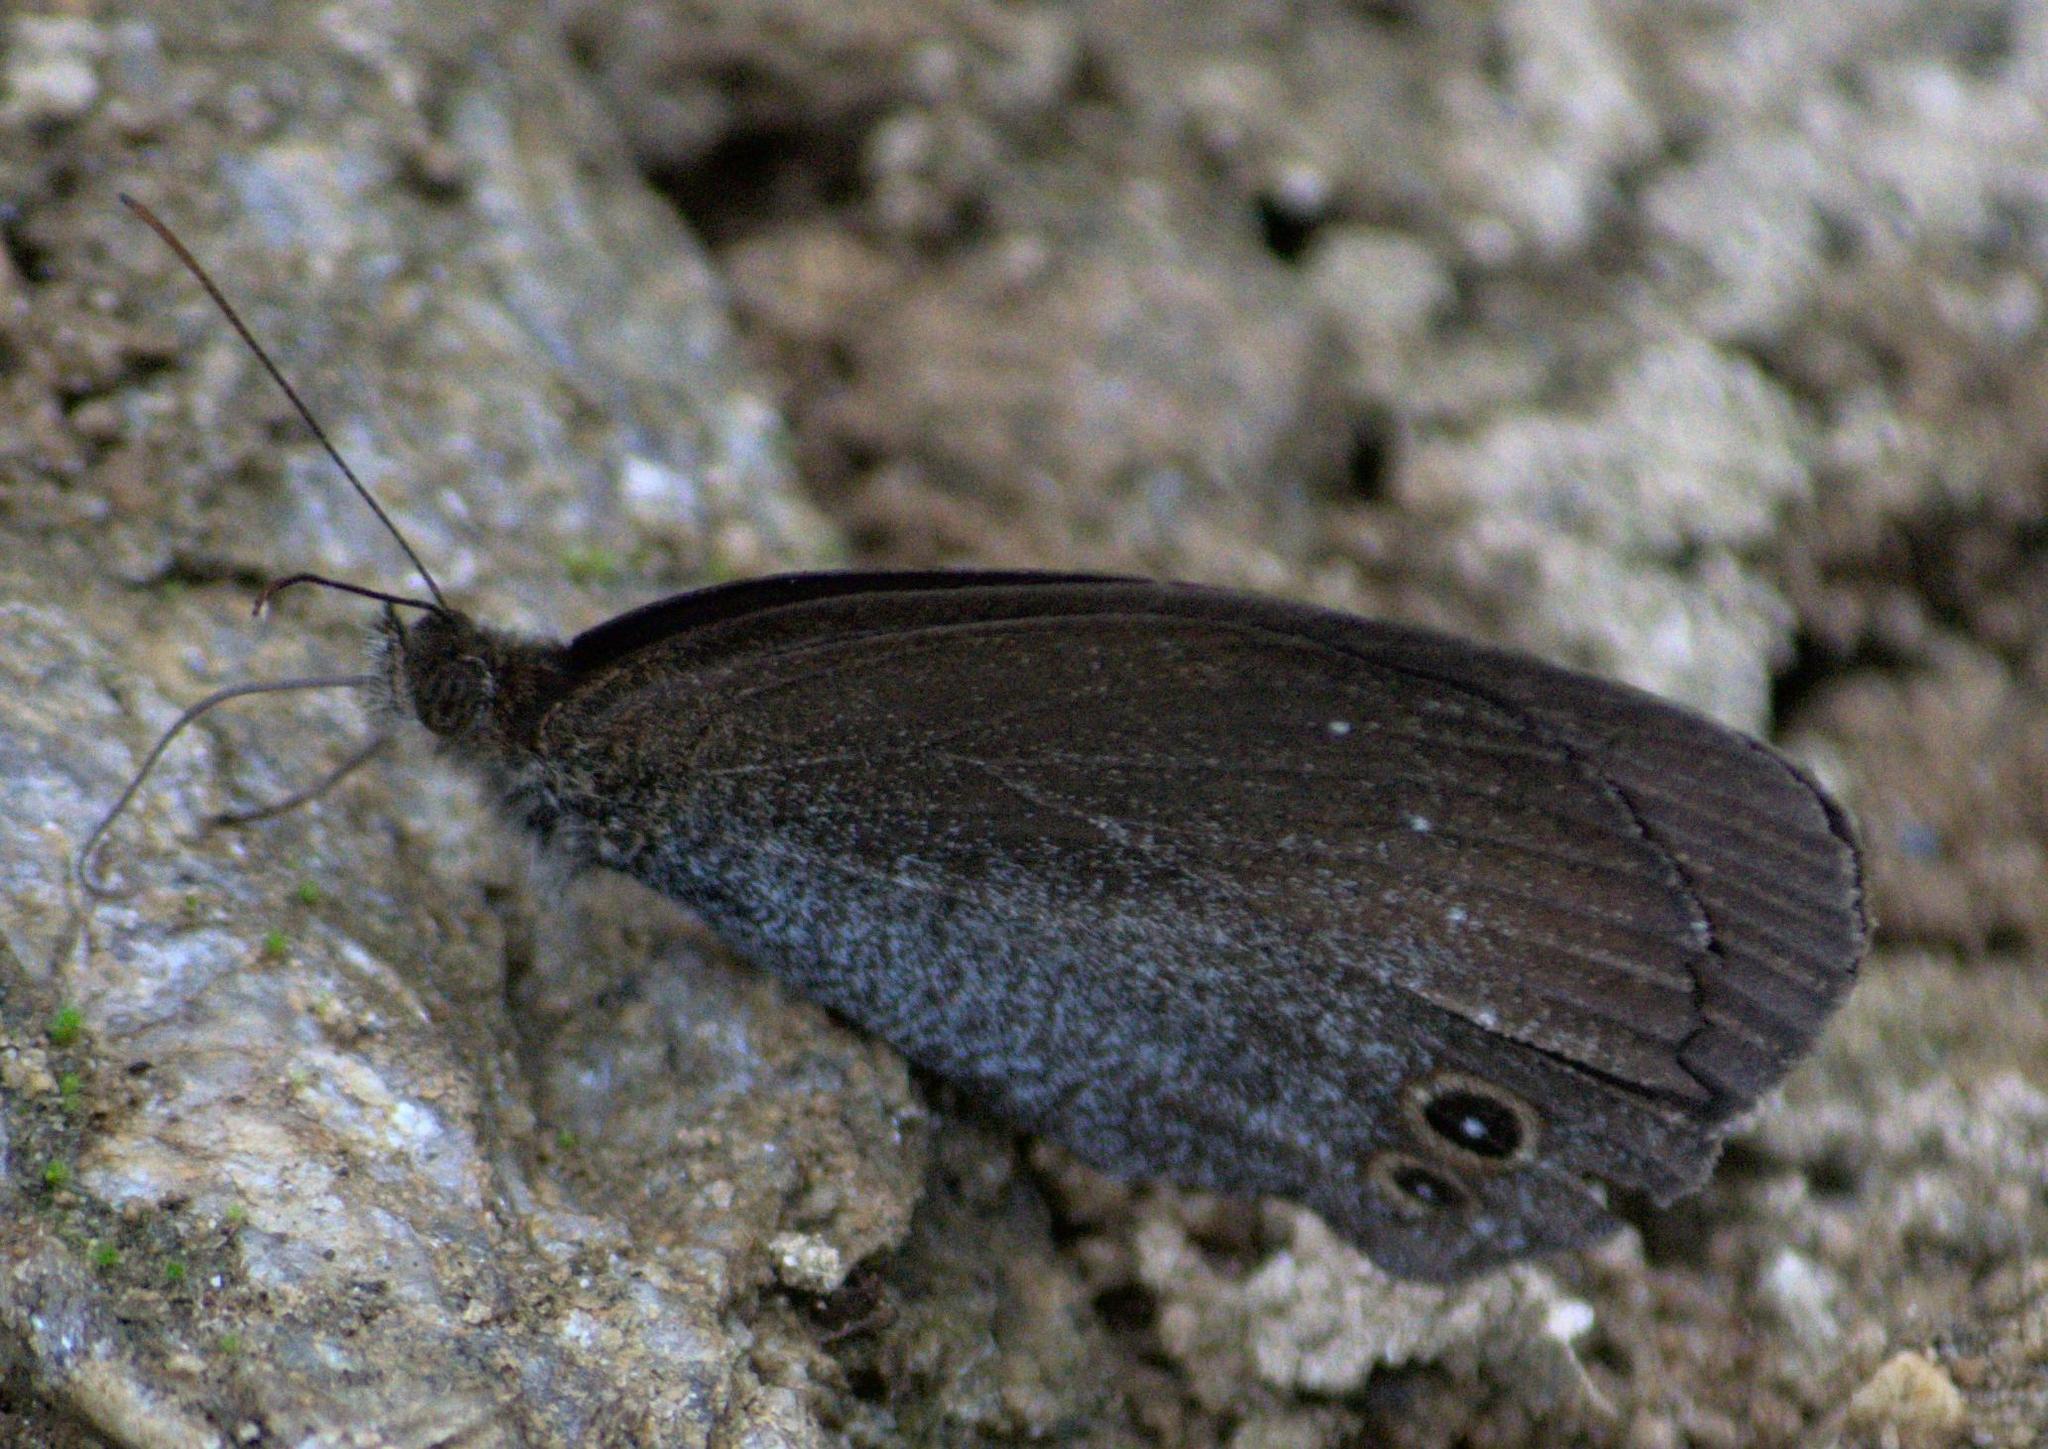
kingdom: Animalia
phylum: Arthropoda
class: Insecta
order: Lepidoptera
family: Nymphalidae
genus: Callerebia
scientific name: Callerebia scanda
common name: Pallid argus
